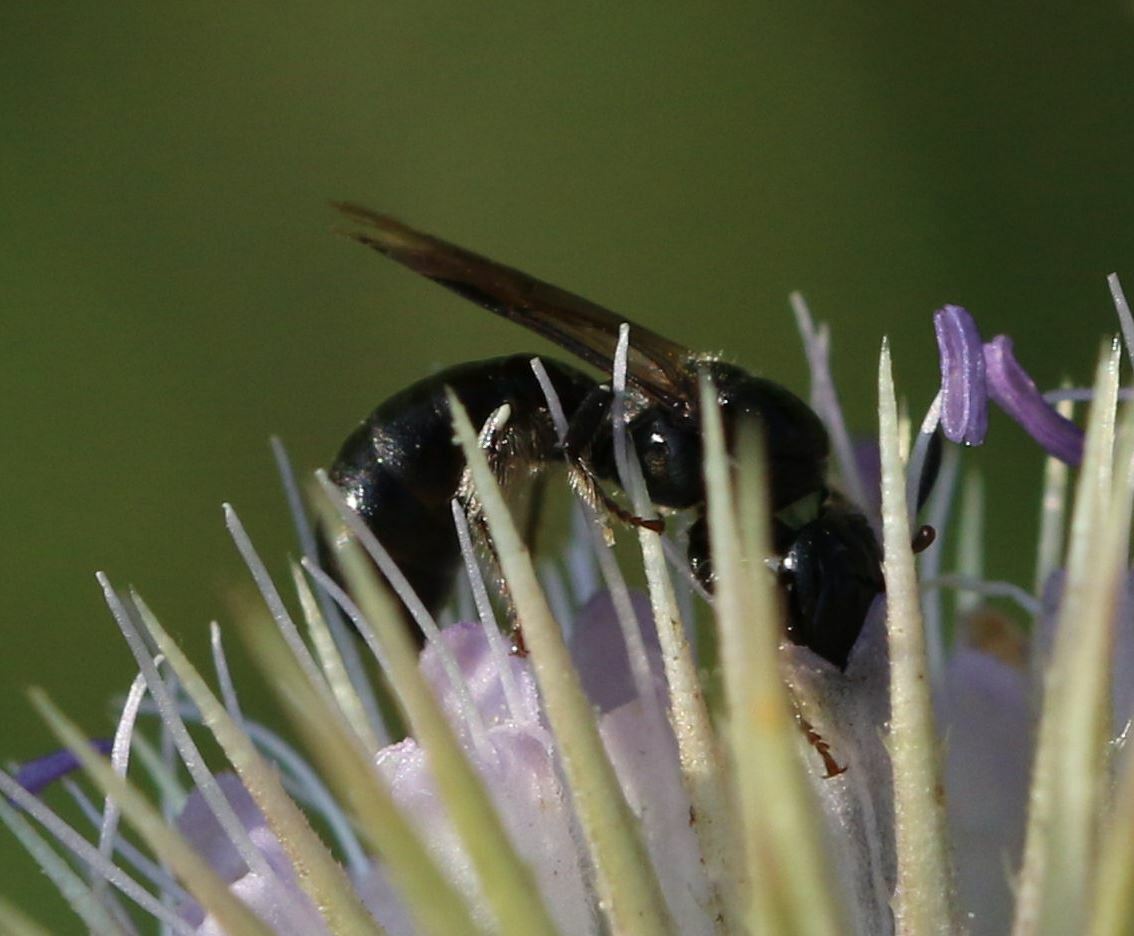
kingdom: Animalia
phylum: Arthropoda
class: Insecta
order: Hymenoptera
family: Apidae
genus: Ceratina
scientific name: Ceratina cucurbitina
